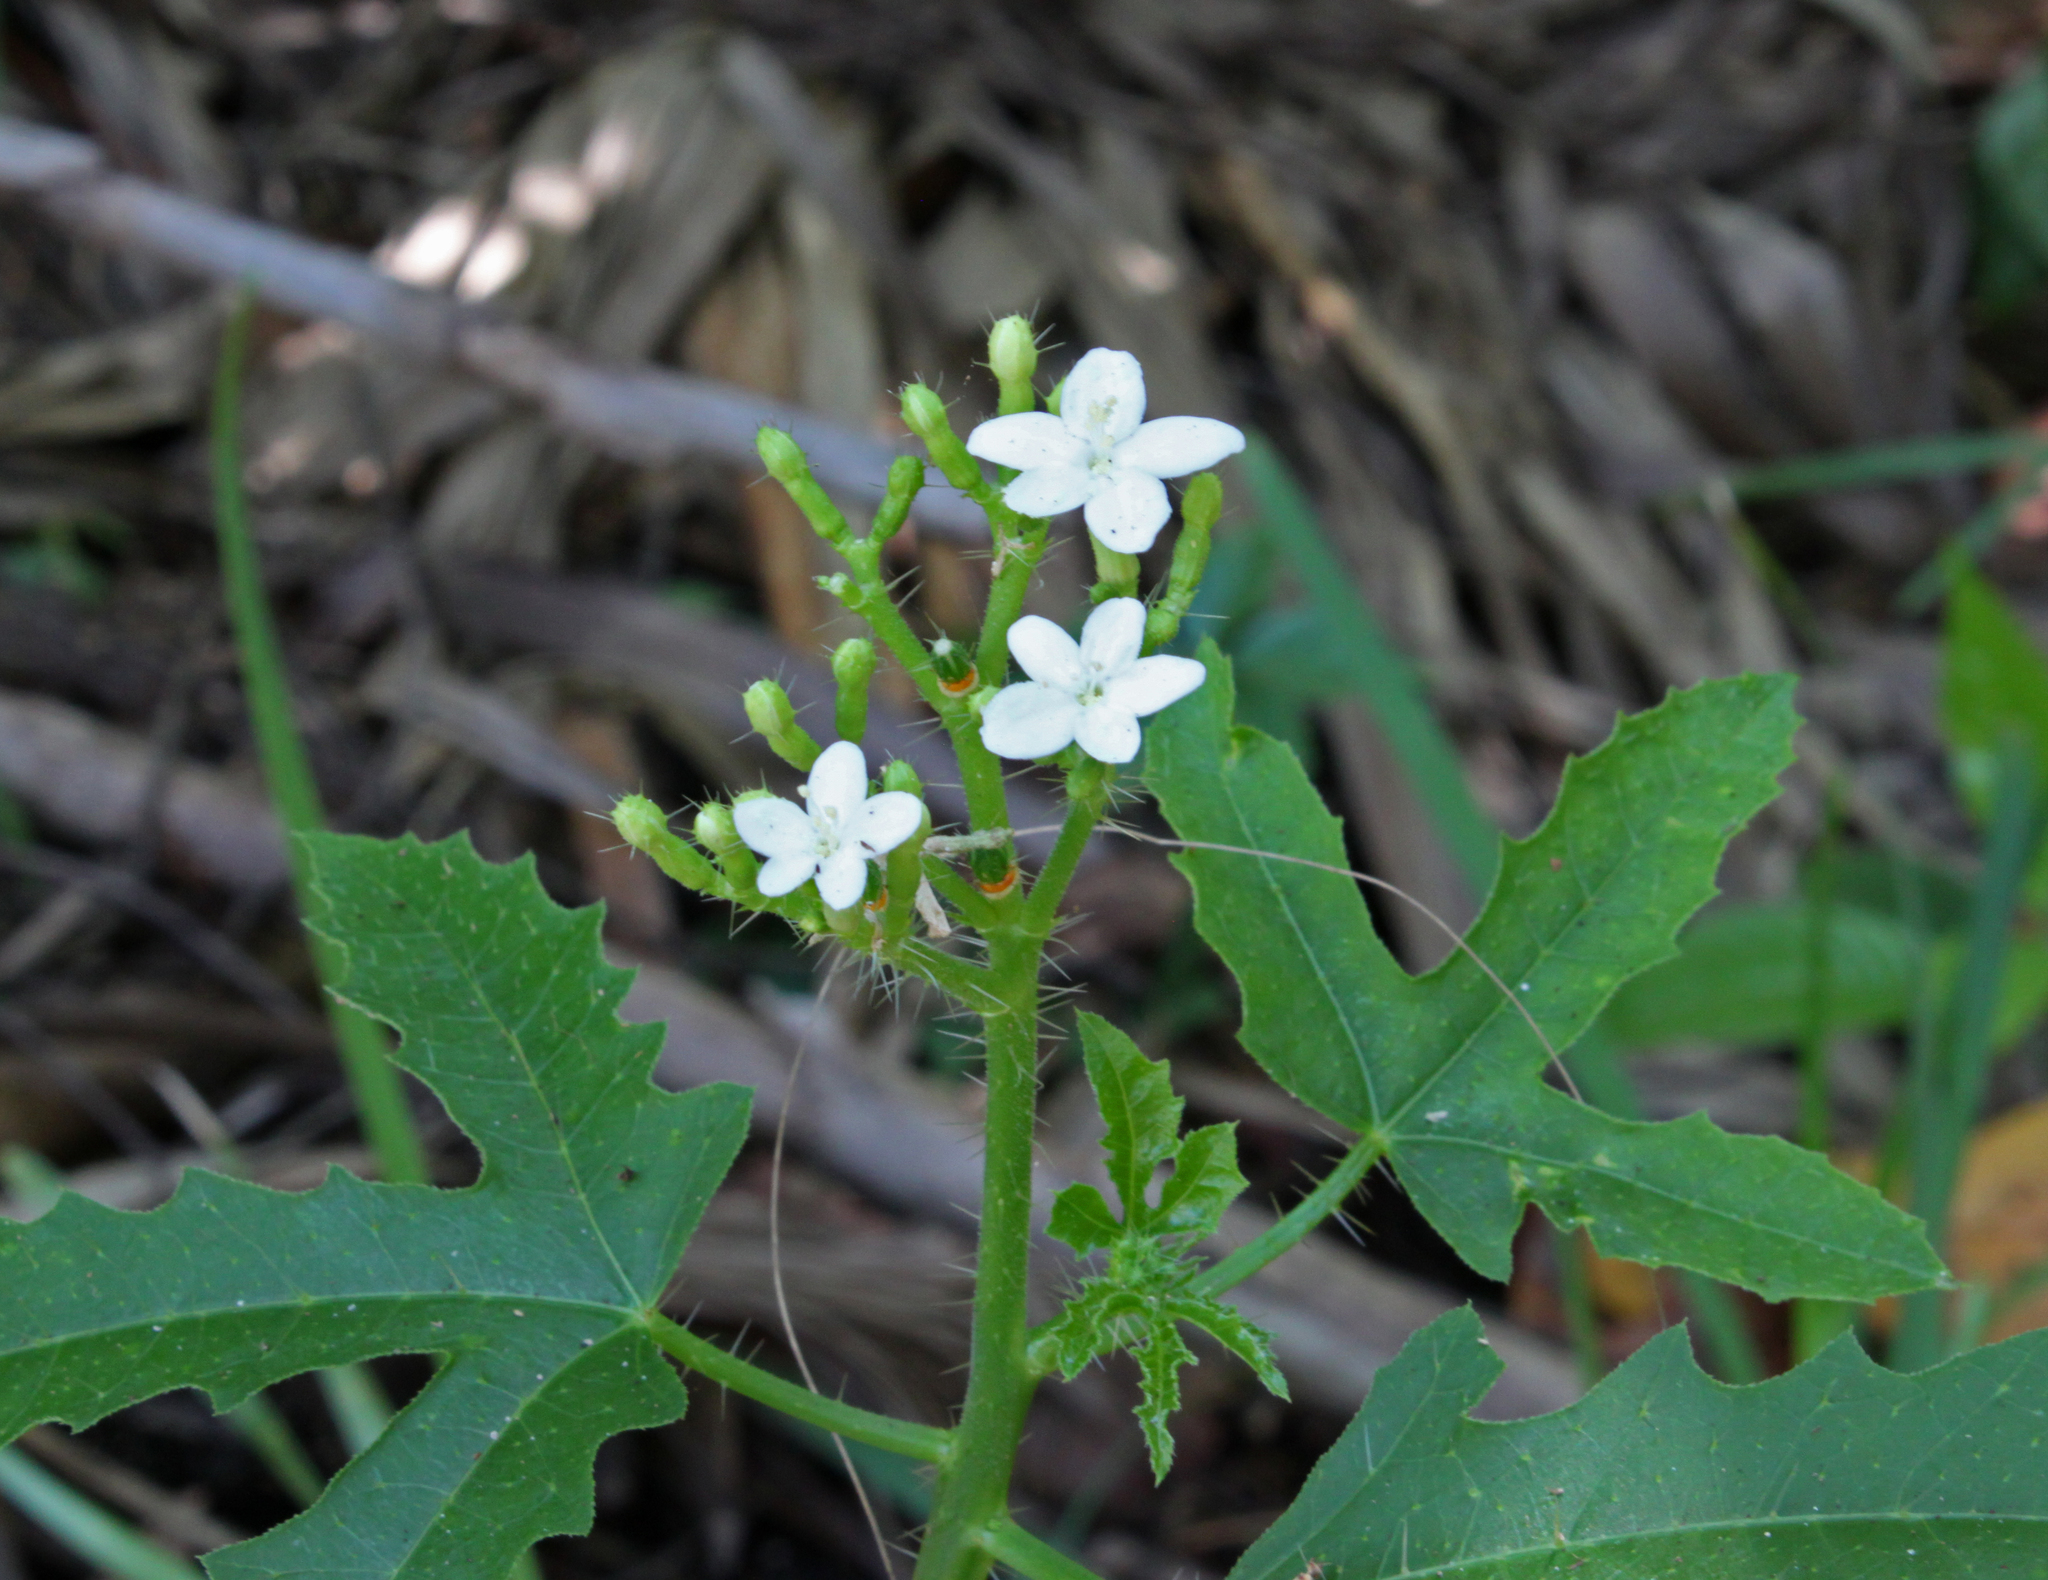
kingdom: Plantae
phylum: Tracheophyta
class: Magnoliopsida
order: Malpighiales
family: Euphorbiaceae
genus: Cnidoscolus
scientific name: Cnidoscolus stimulosus
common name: Bull-nettle
